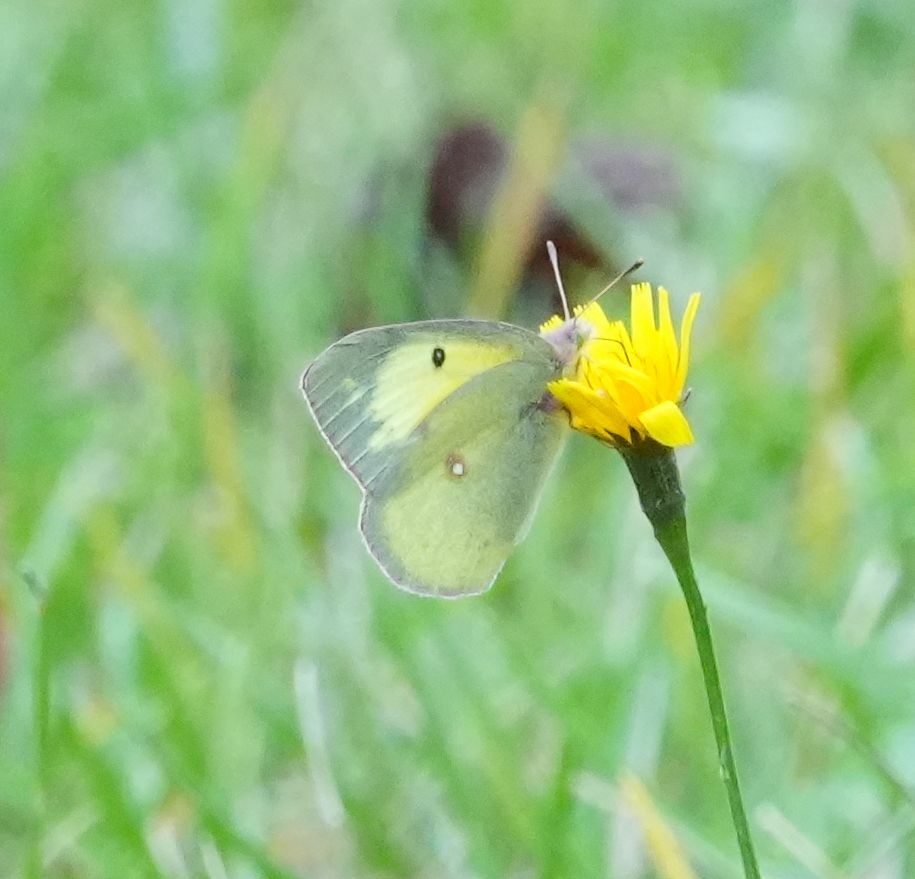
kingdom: Animalia
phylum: Arthropoda
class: Insecta
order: Lepidoptera
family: Pieridae
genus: Colias
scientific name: Colias philodice
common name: Clouded sulphur
